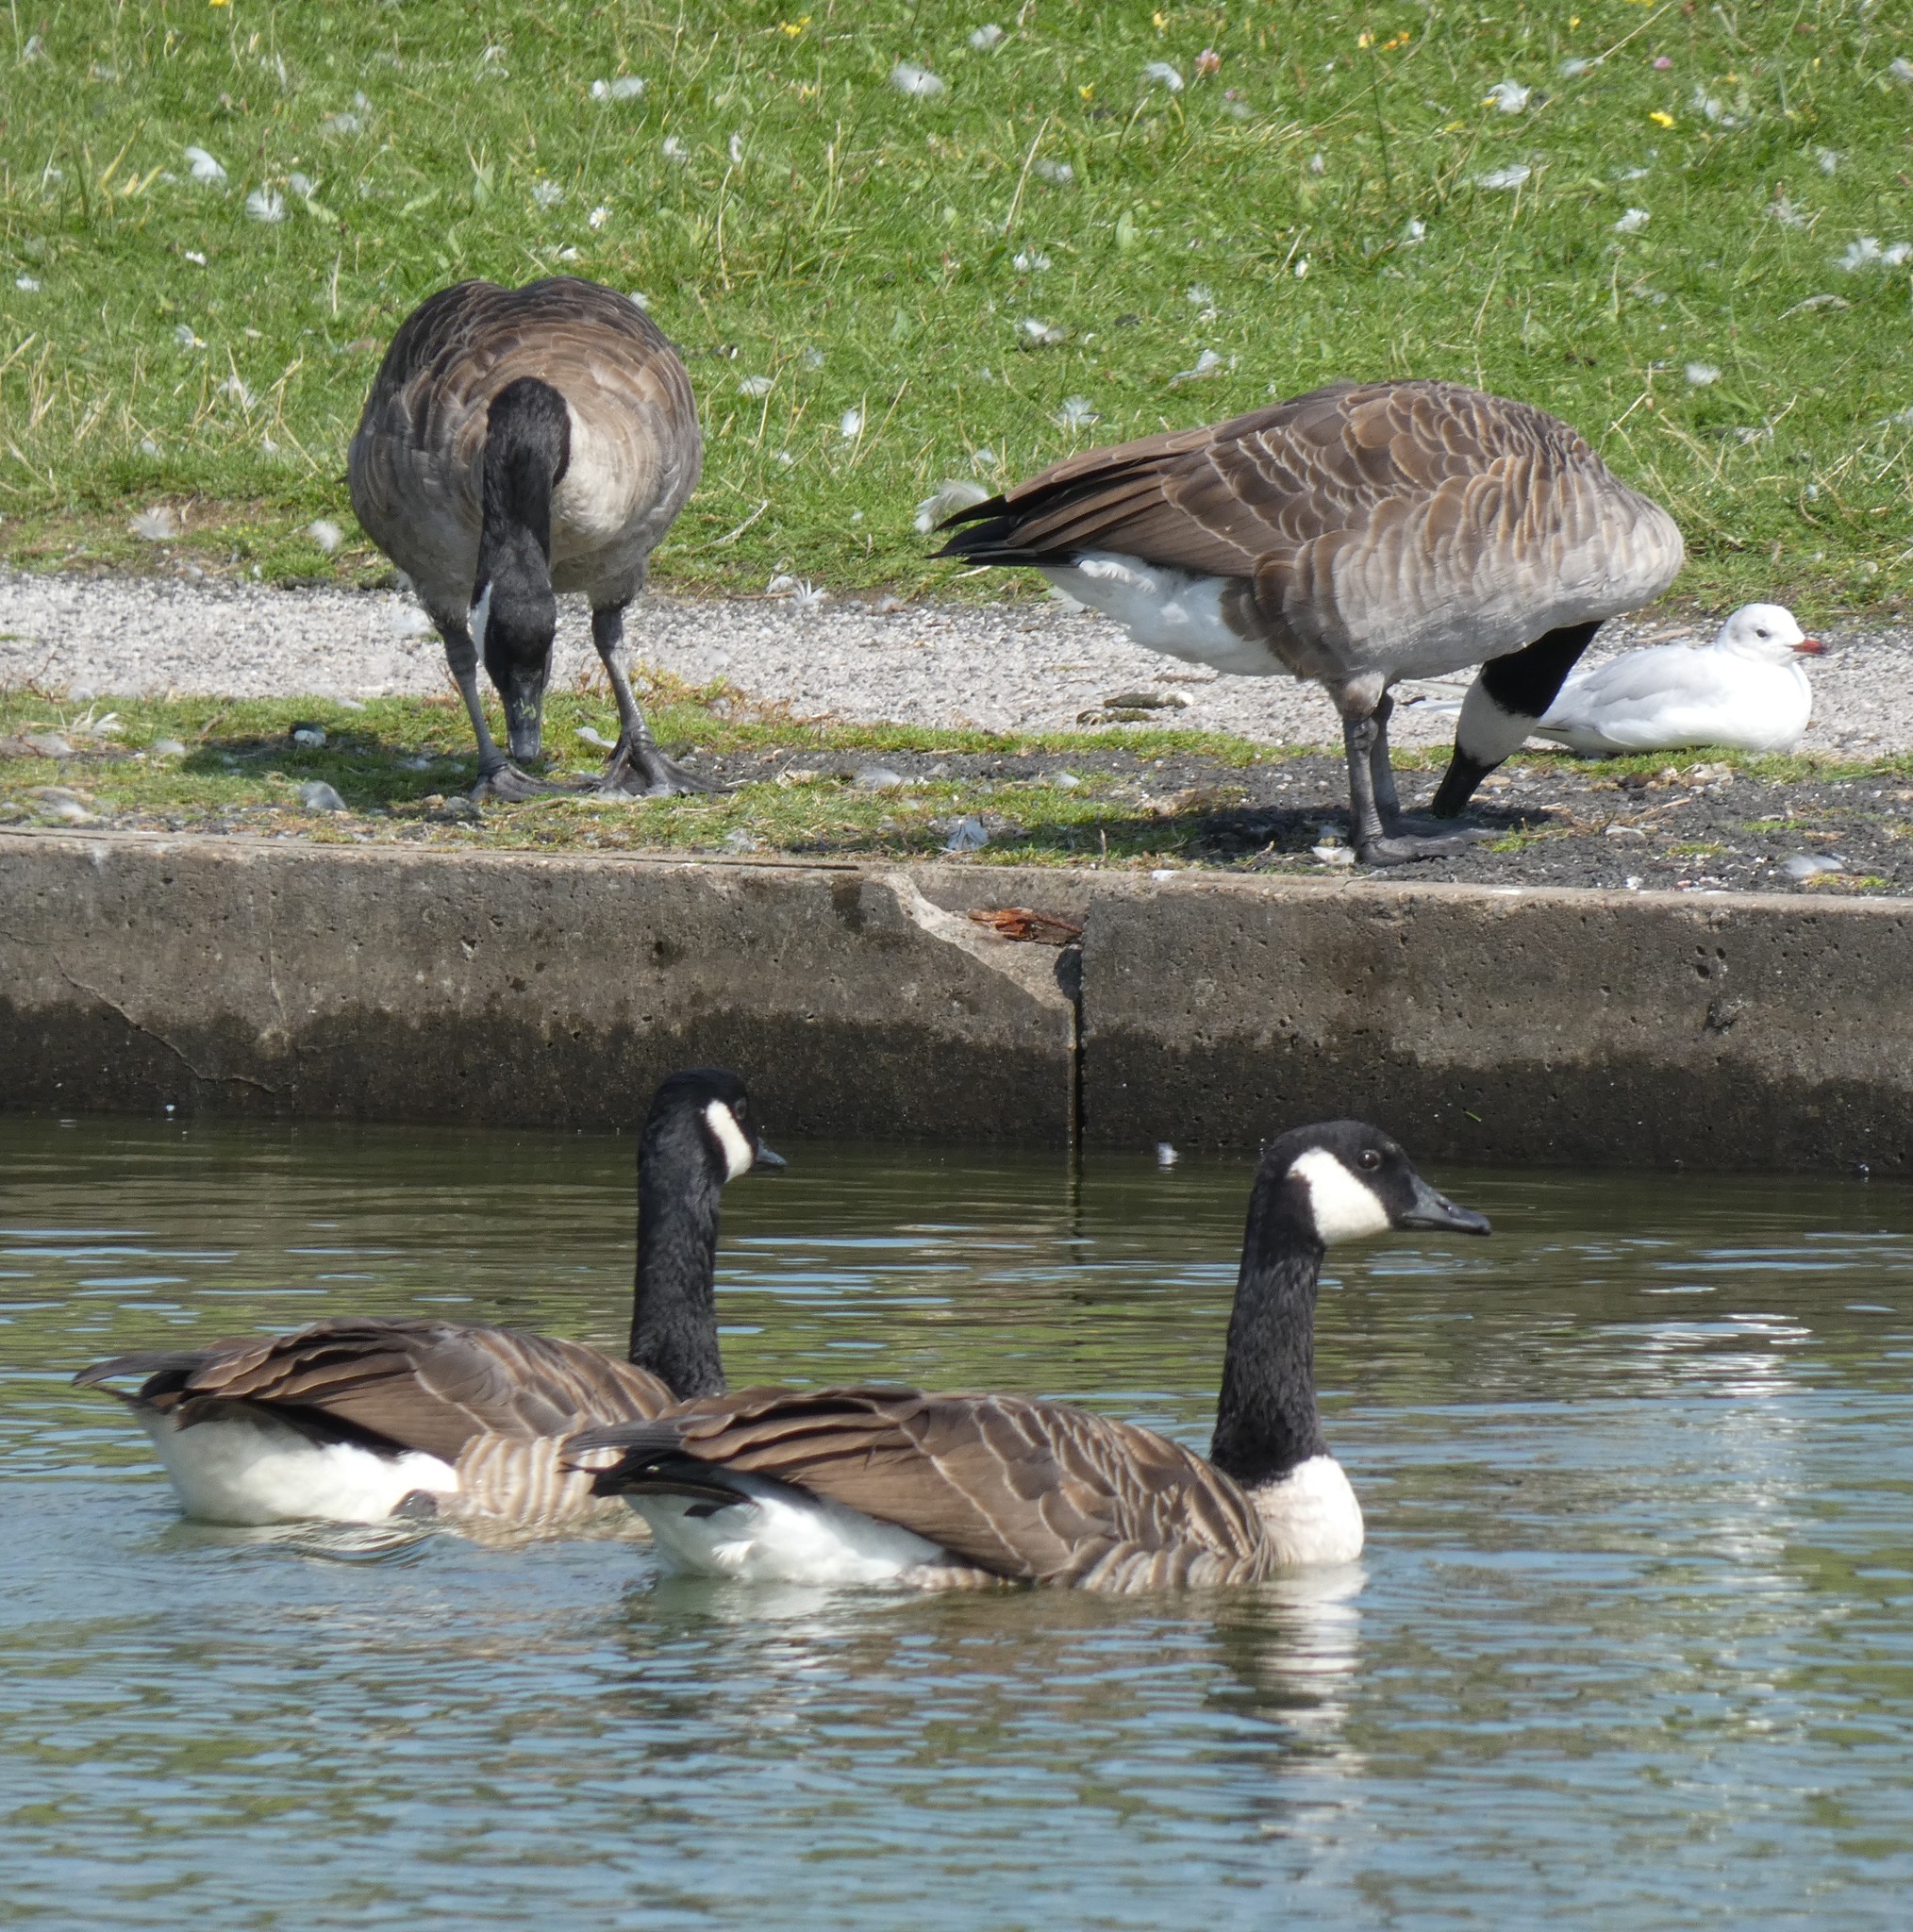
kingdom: Animalia
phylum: Chordata
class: Aves
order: Anseriformes
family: Anatidae
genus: Branta
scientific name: Branta canadensis
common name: Canada goose
